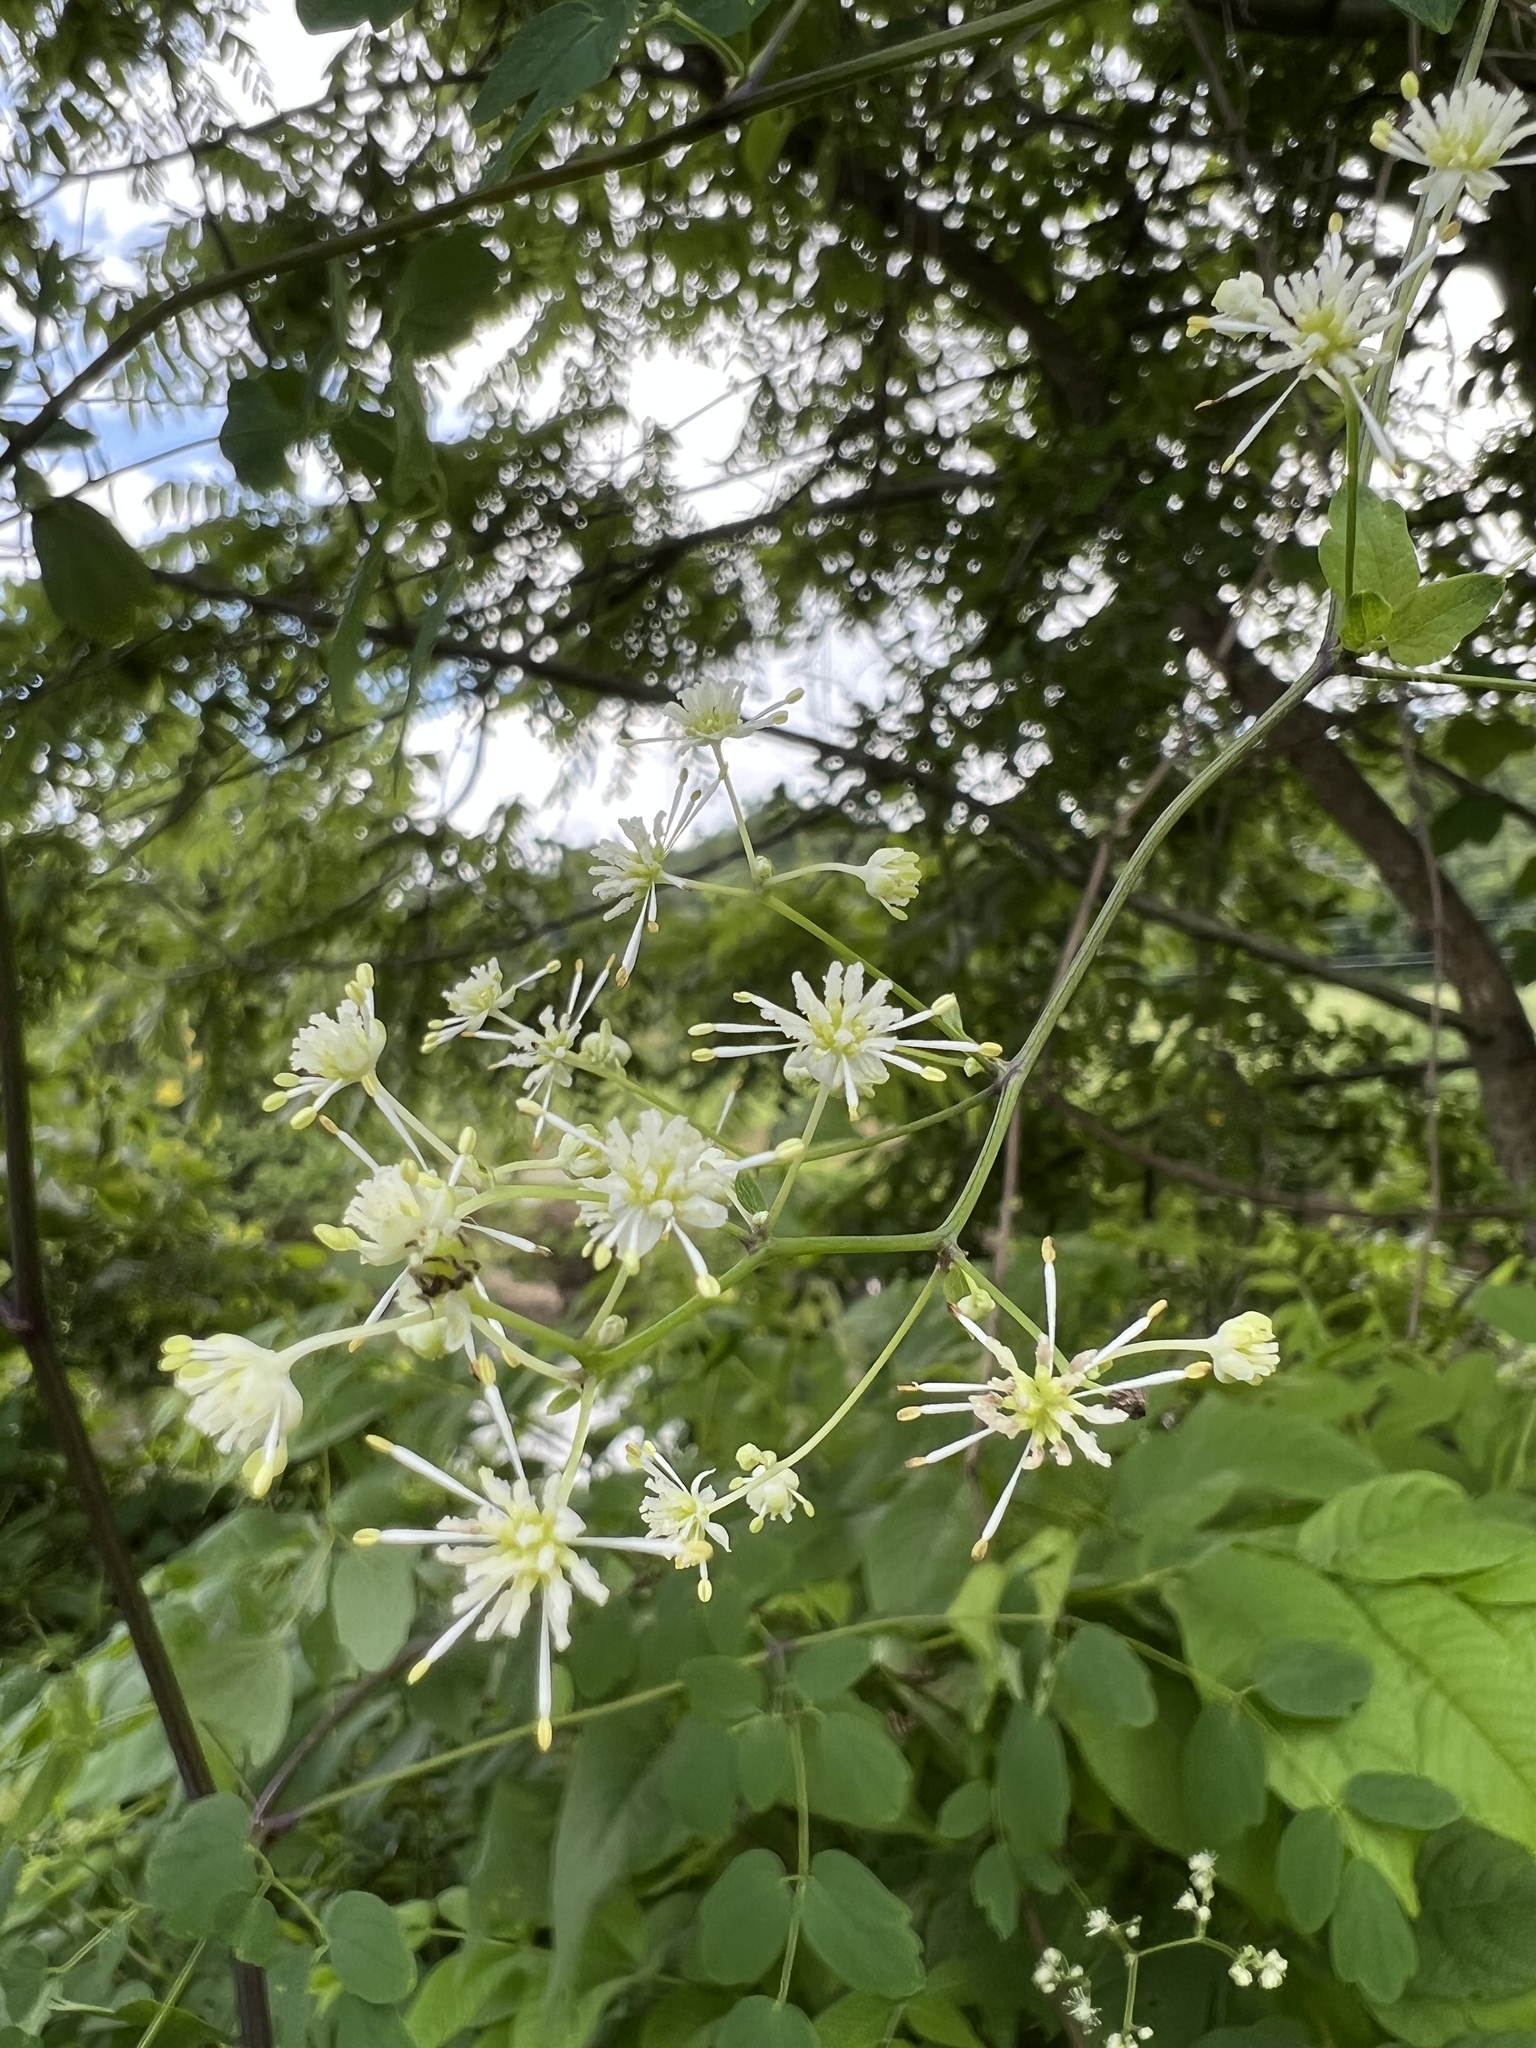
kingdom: Plantae
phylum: Tracheophyta
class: Magnoliopsida
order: Ranunculales
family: Ranunculaceae
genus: Thalictrum
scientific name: Thalictrum pubescens
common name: King-of-the-meadow
